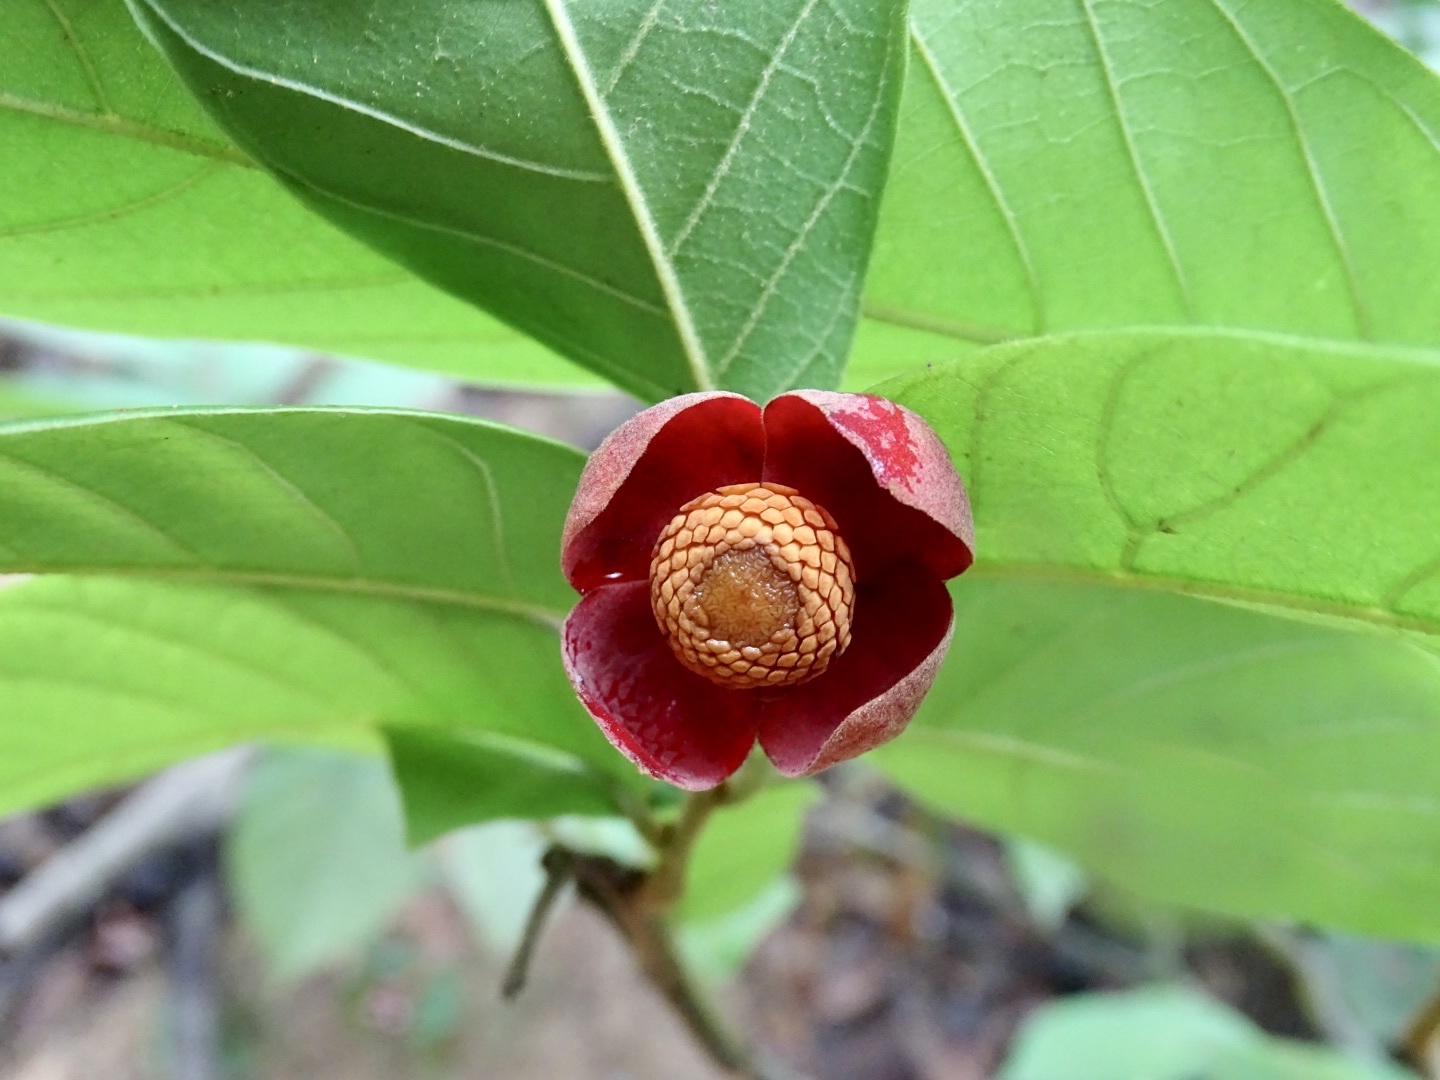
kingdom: Plantae
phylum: Tracheophyta
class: Magnoliopsida
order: Magnoliales
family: Annonaceae
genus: Uvaria
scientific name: Uvaria littoralis
